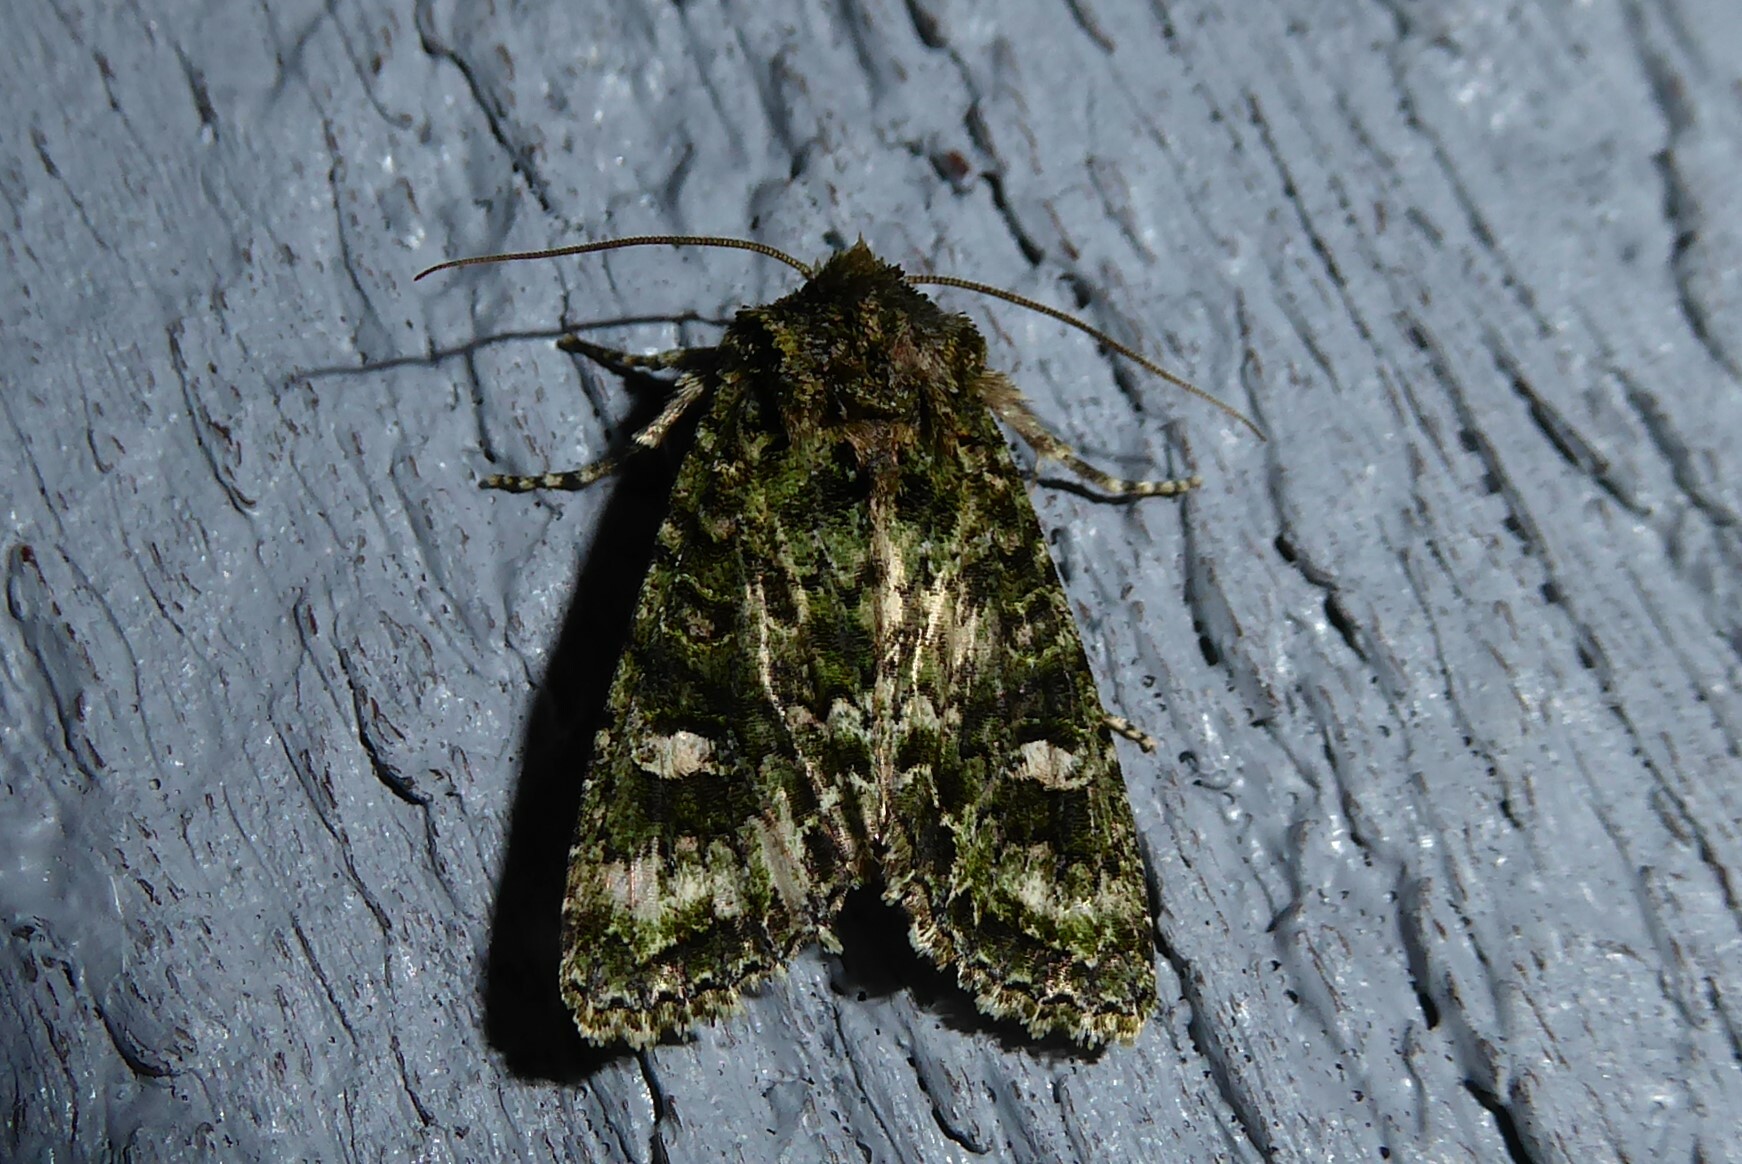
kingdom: Animalia
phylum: Arthropoda
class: Insecta
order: Lepidoptera
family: Noctuidae
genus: Ichneutica
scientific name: Ichneutica
